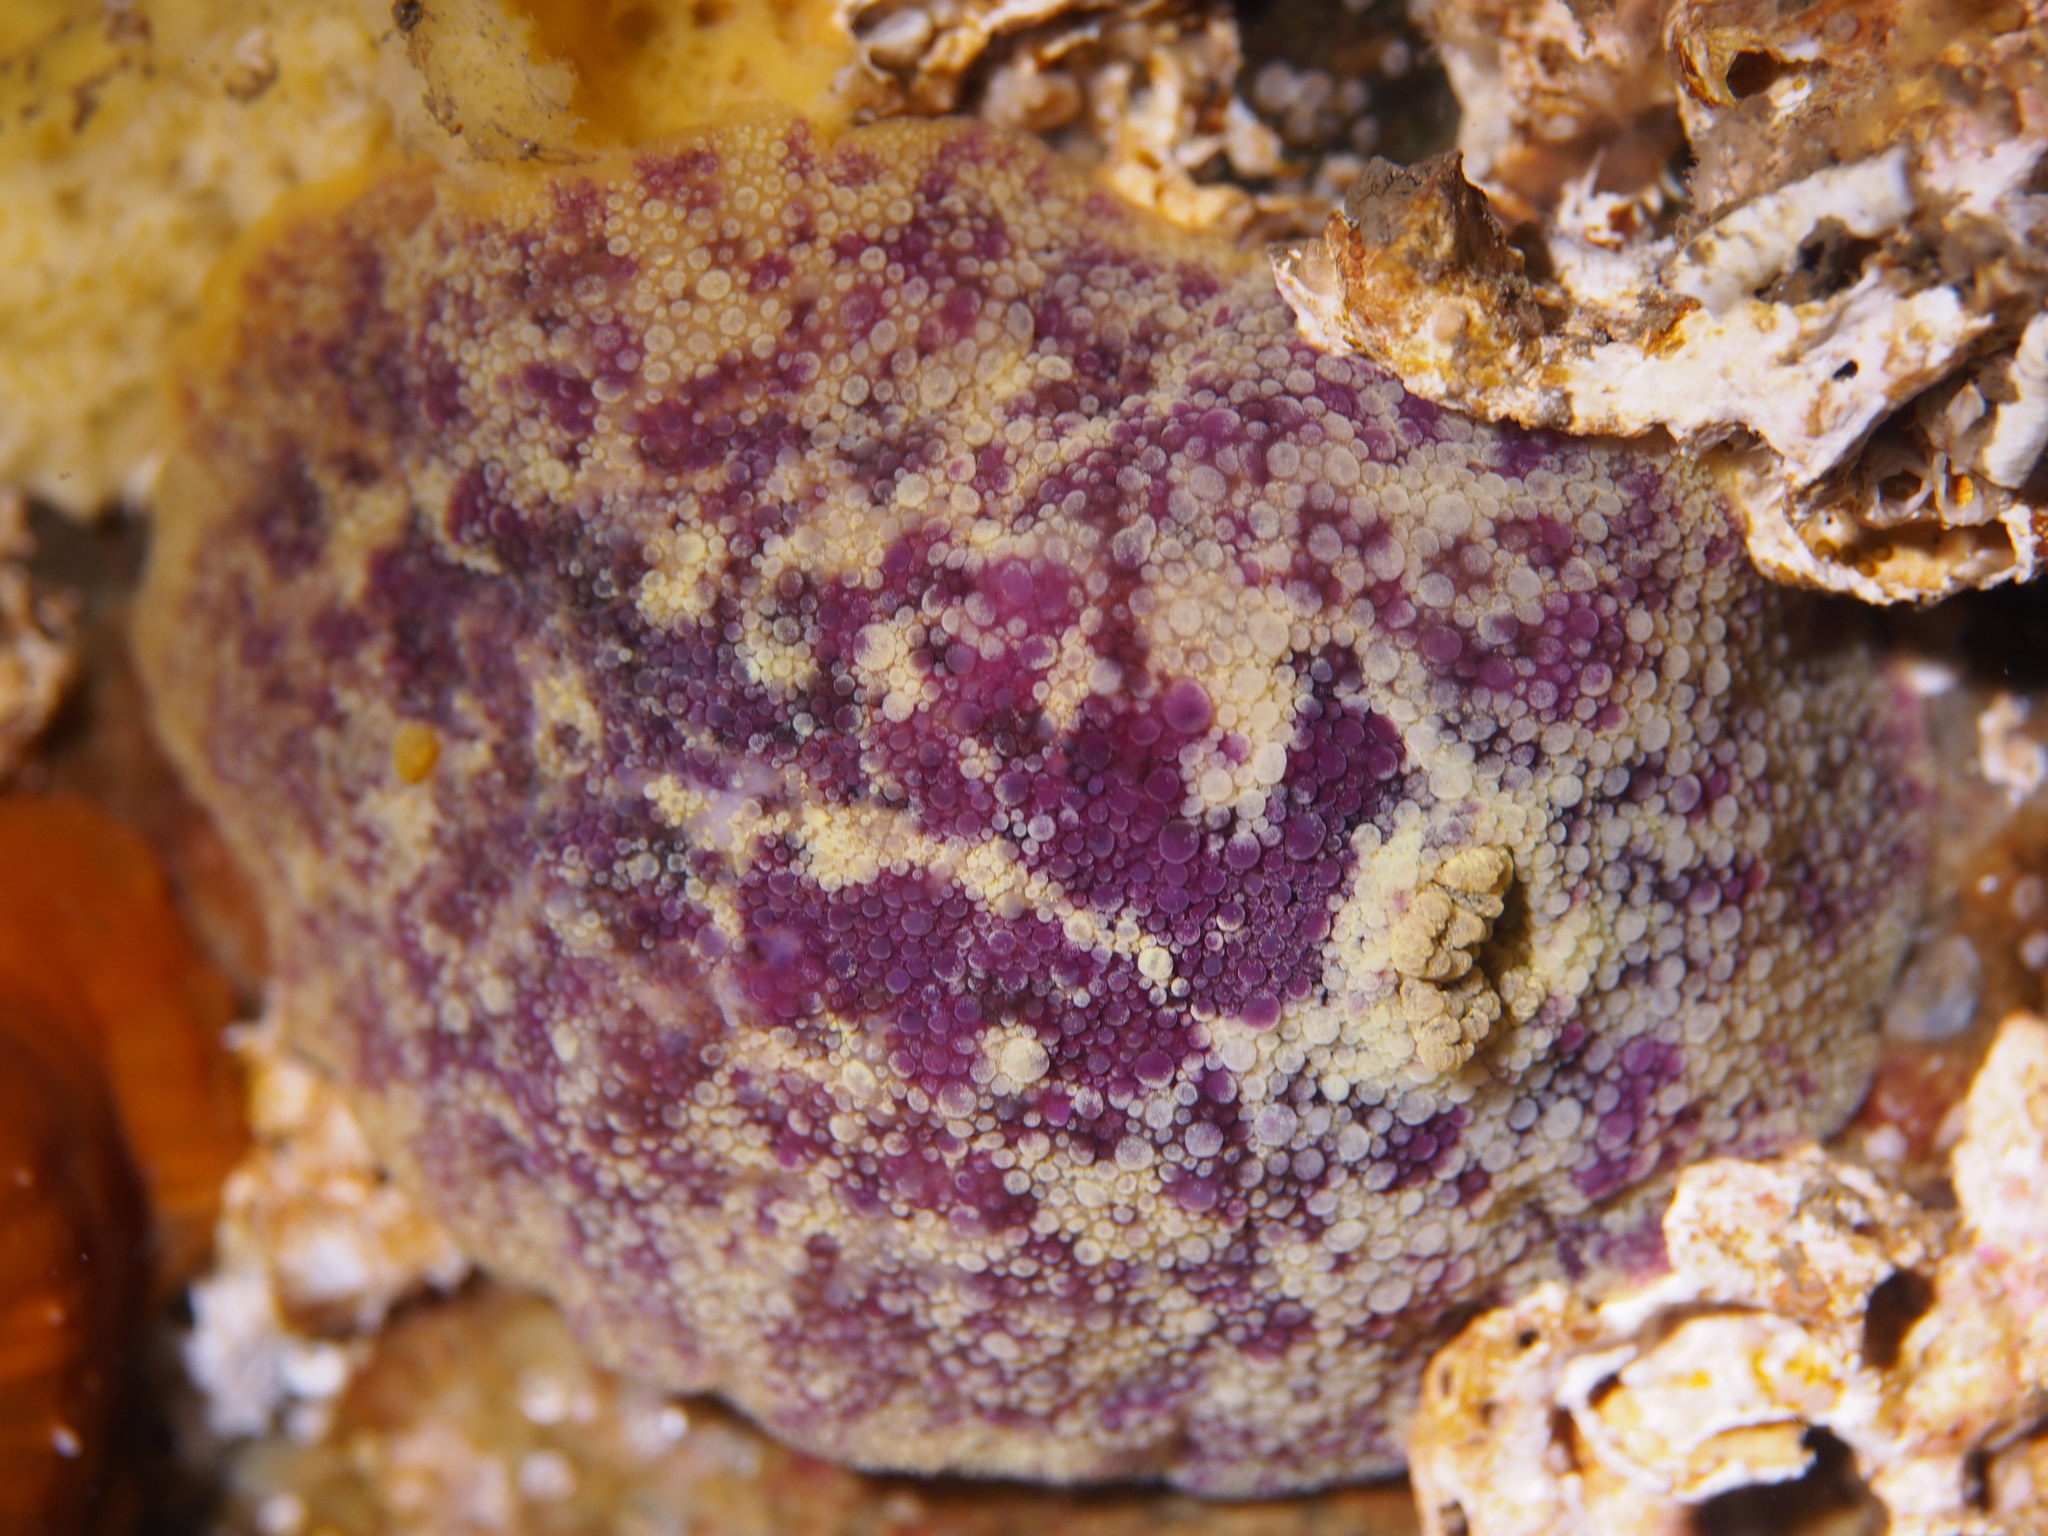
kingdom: Animalia
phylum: Mollusca
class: Gastropoda
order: Nudibranchia
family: Dorididae
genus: Doris
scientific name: Doris pseudoargus
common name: Sea lemon
